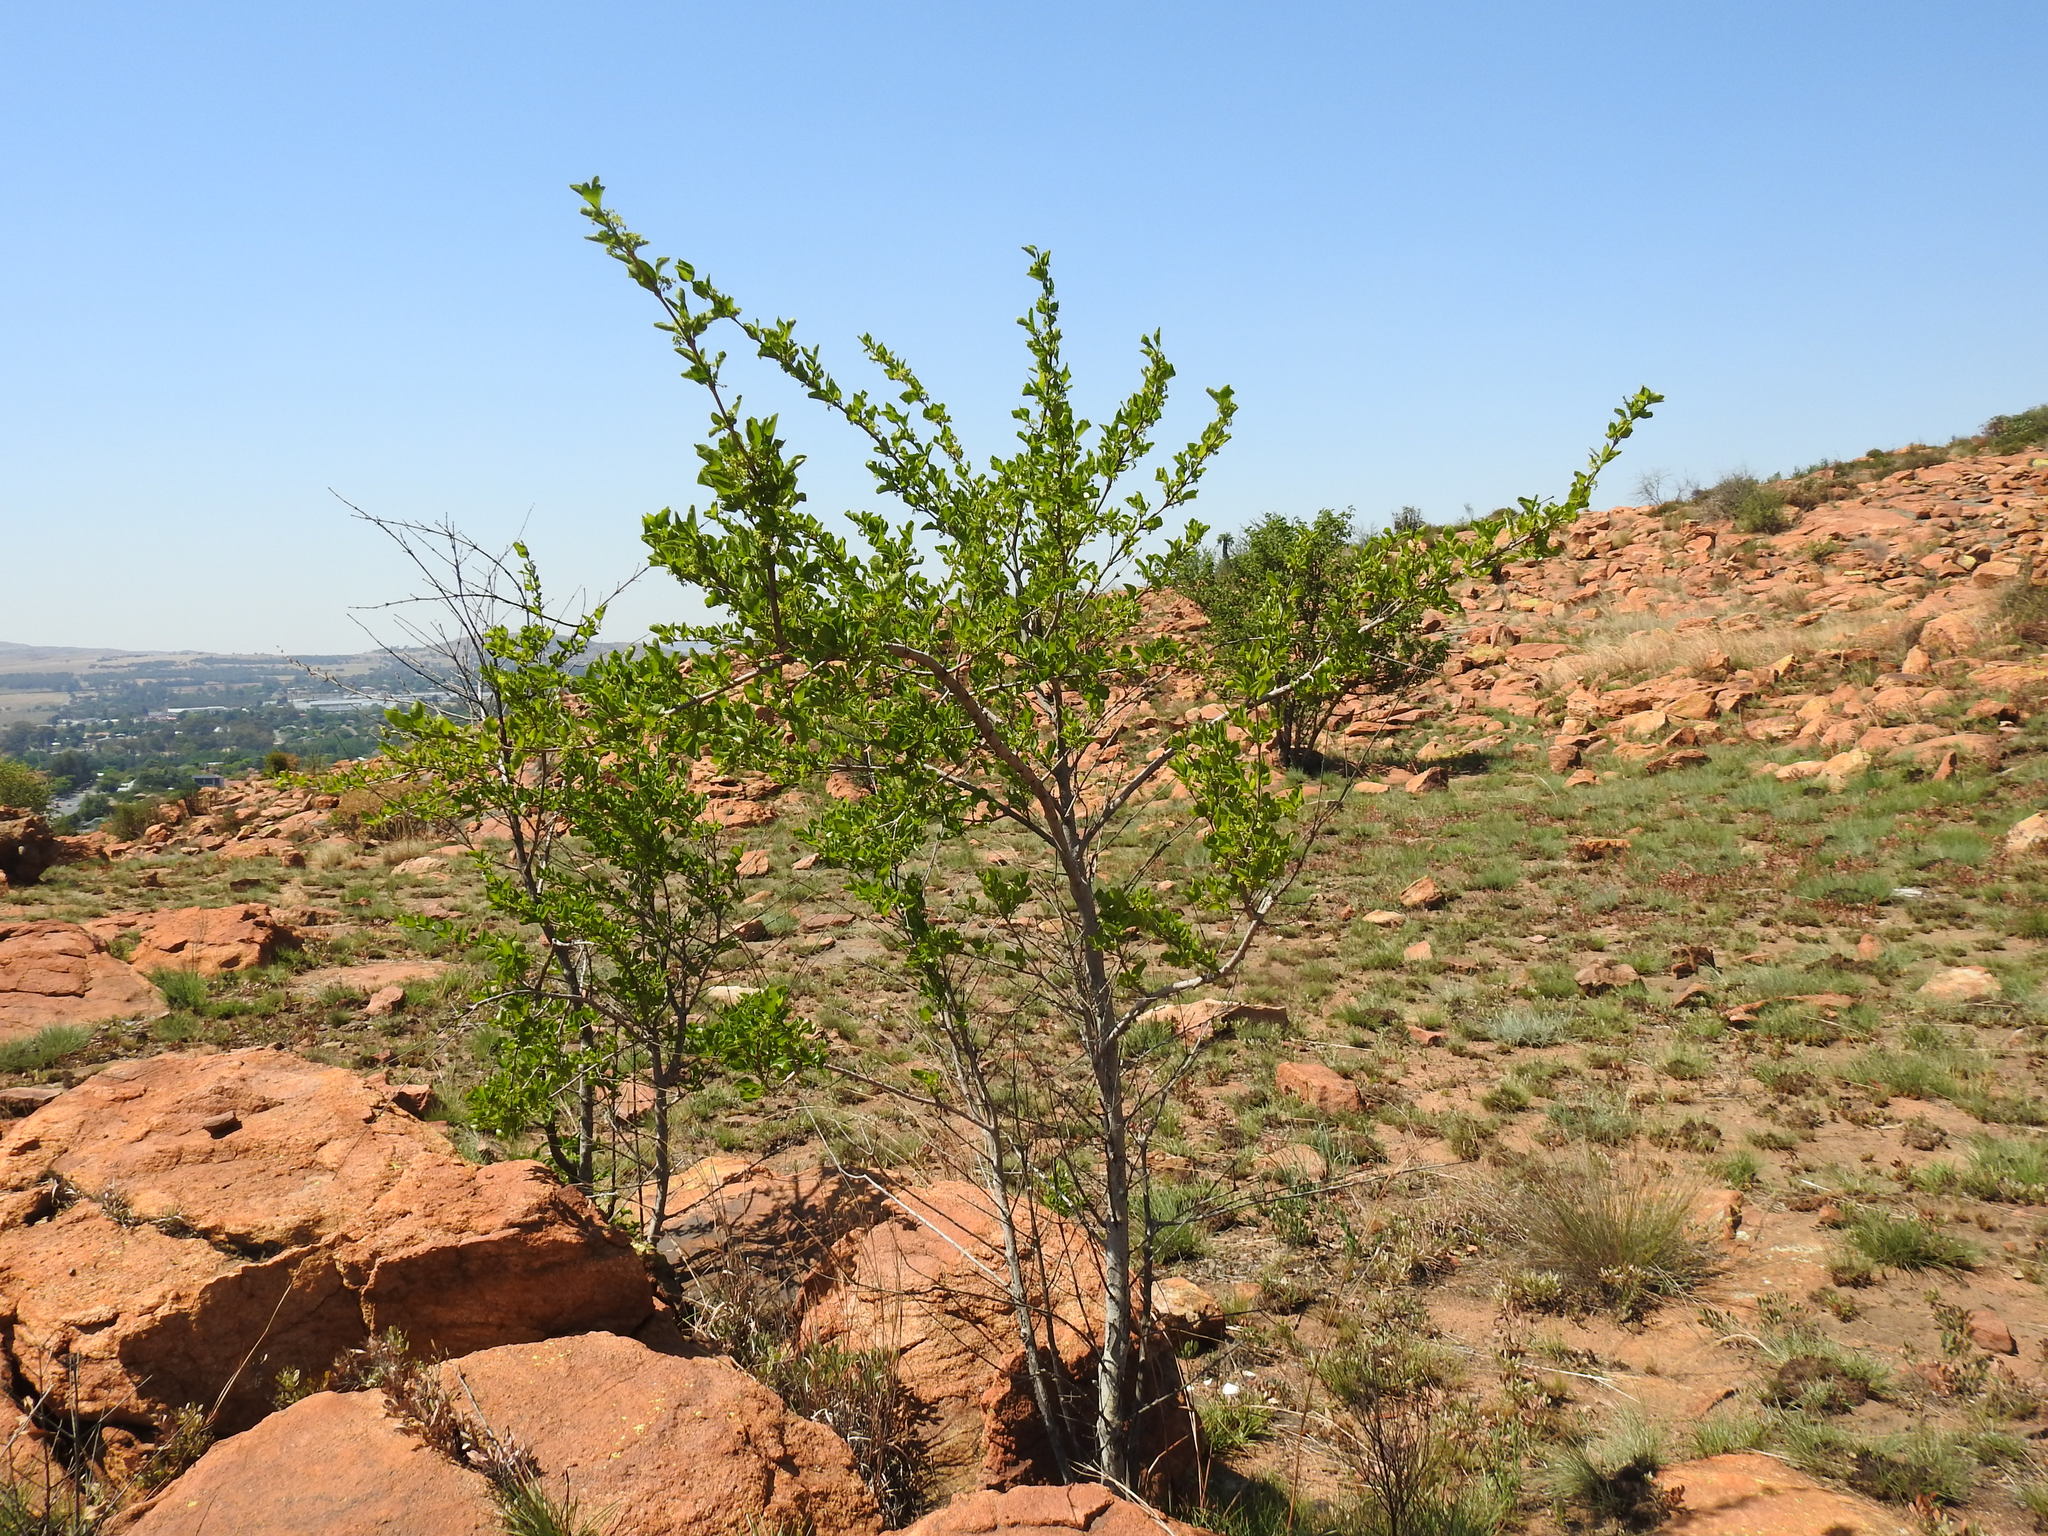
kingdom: Plantae
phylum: Tracheophyta
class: Magnoliopsida
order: Gentianales
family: Rubiaceae
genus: Vangueria
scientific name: Vangueria parvifolia
